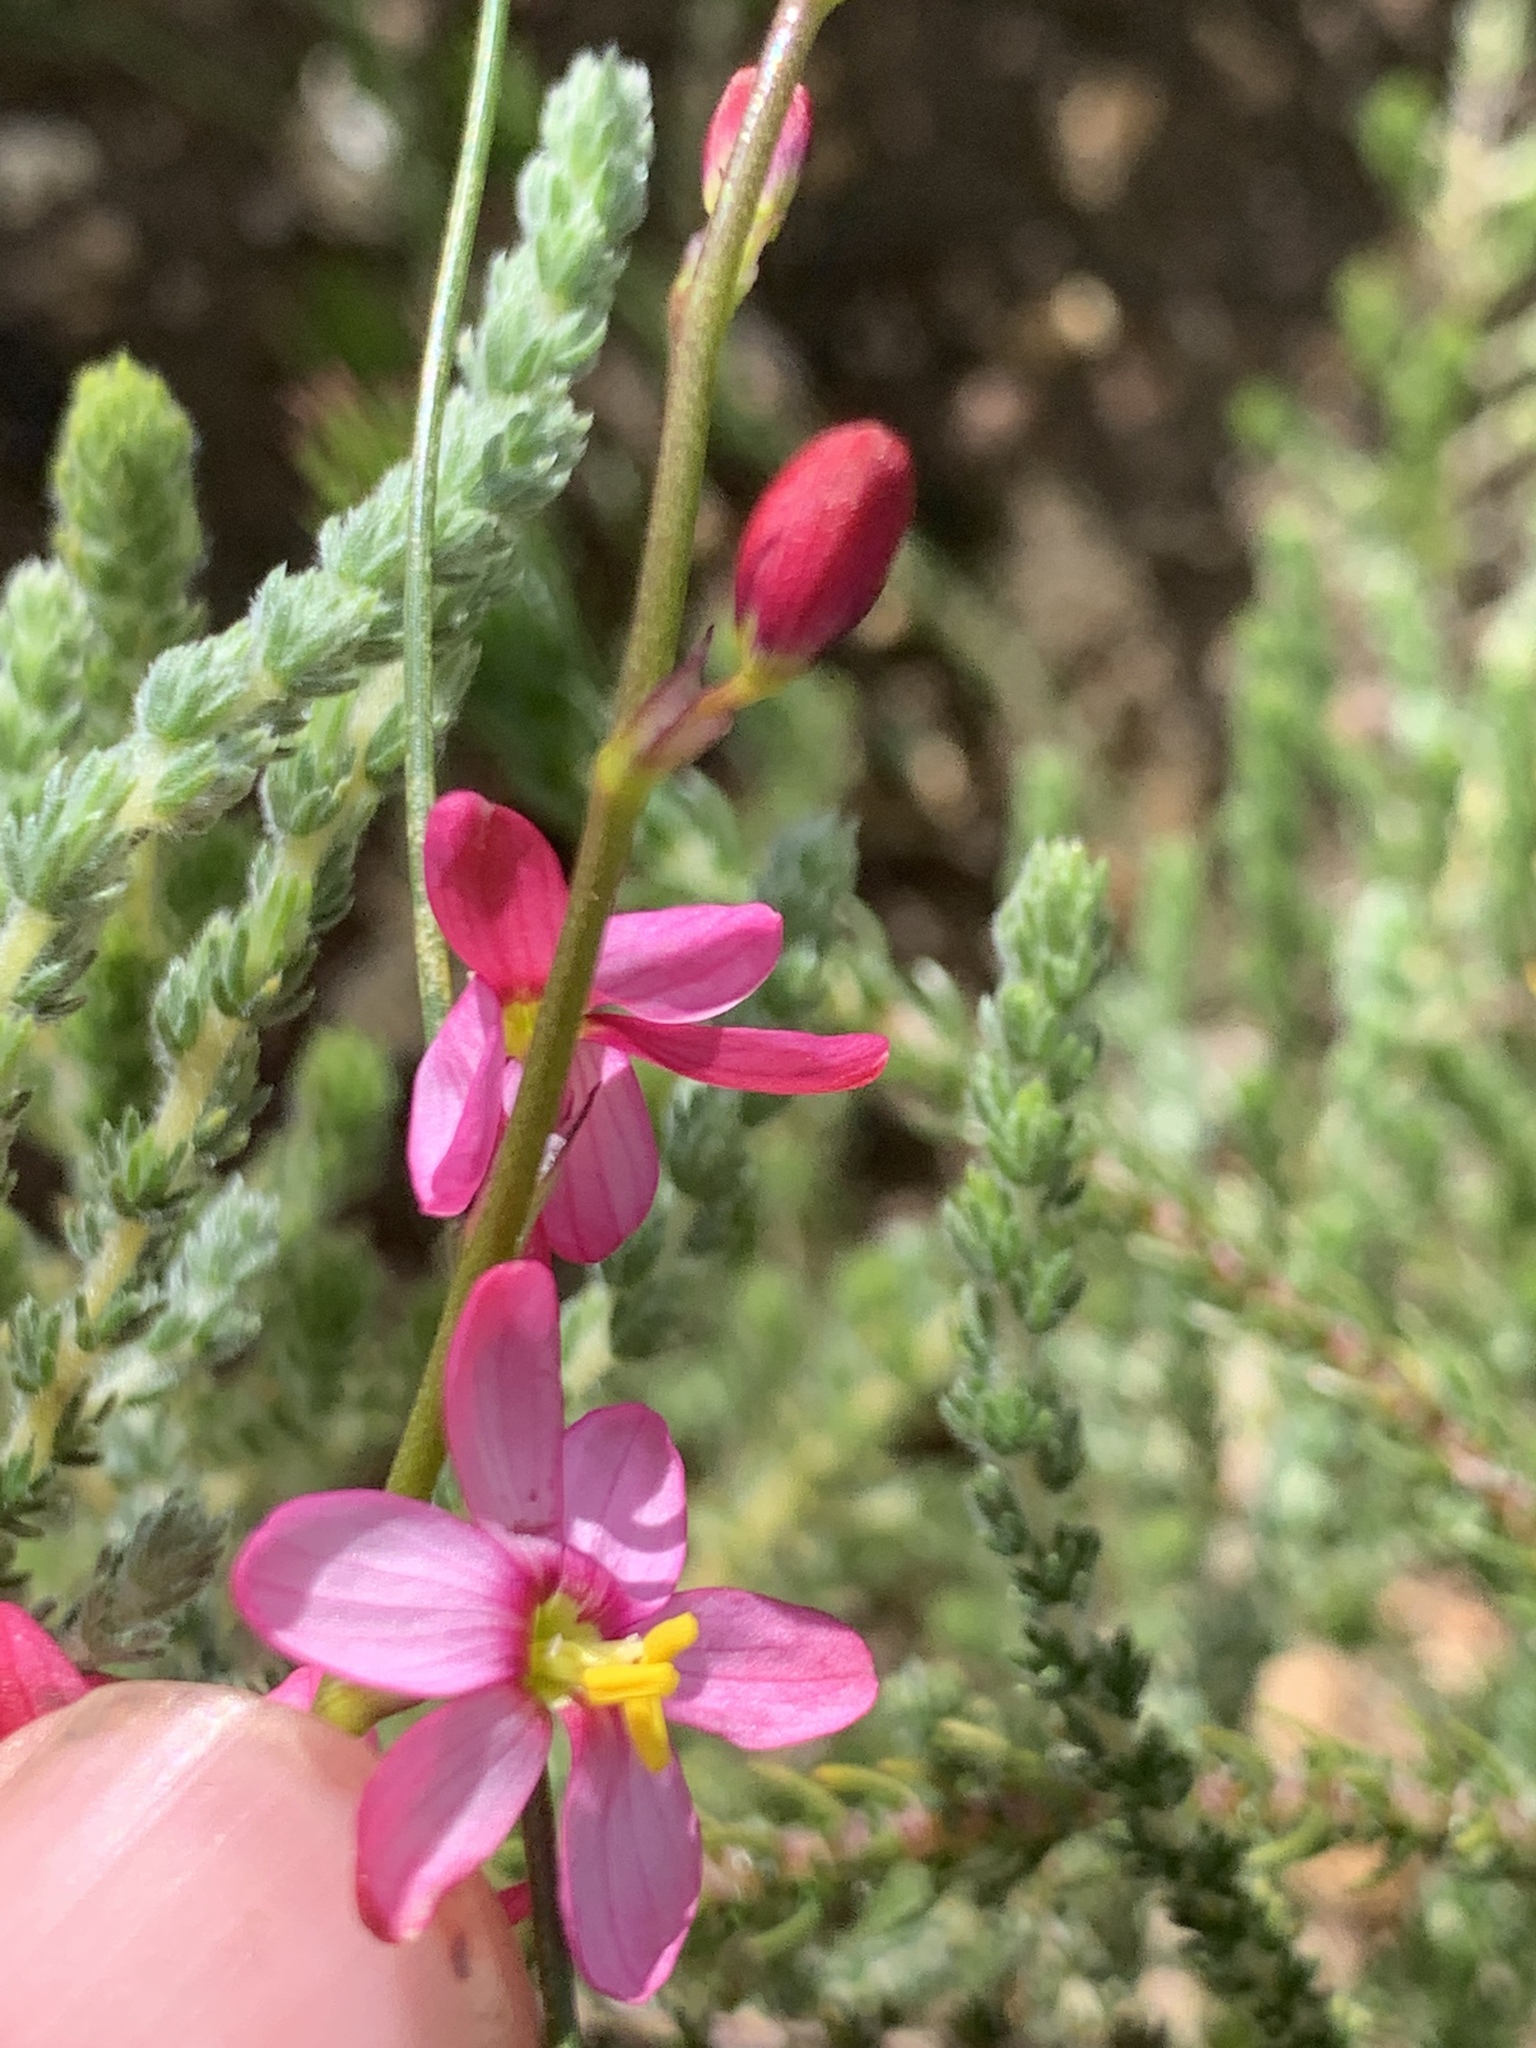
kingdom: Plantae
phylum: Tracheophyta
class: Liliopsida
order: Asparagales
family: Iridaceae
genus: Ixia
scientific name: Ixia scillaris
